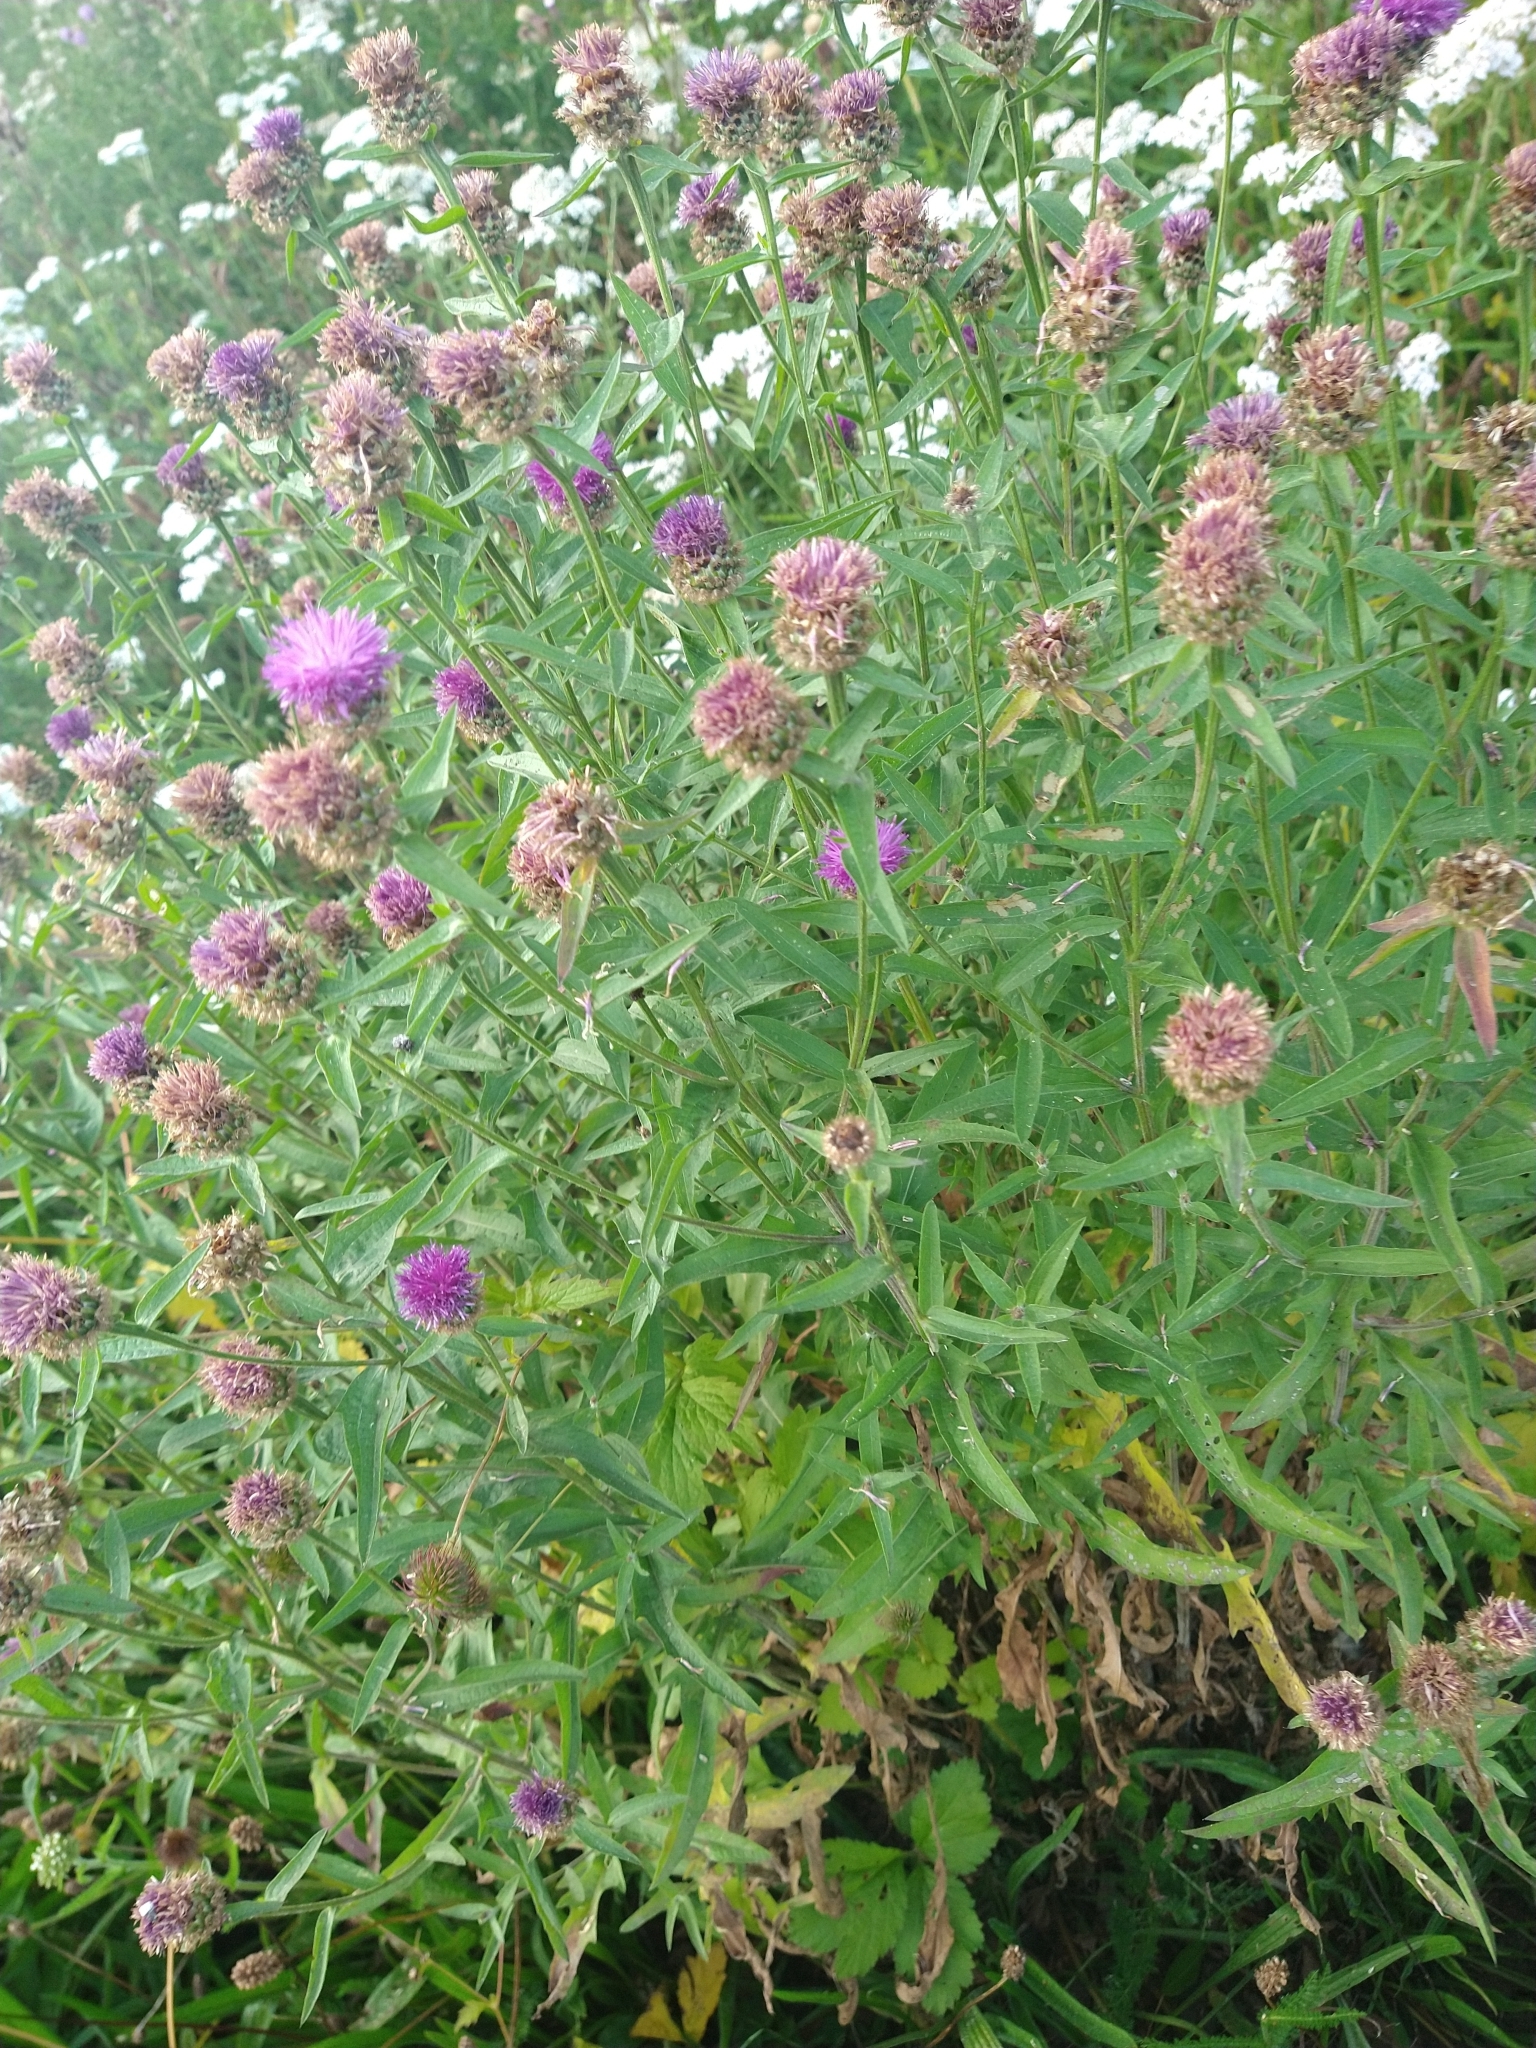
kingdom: Plantae
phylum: Tracheophyta
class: Magnoliopsida
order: Asterales
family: Asteraceae
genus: Centaurea
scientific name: Centaurea nigra
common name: Lesser knapweed
